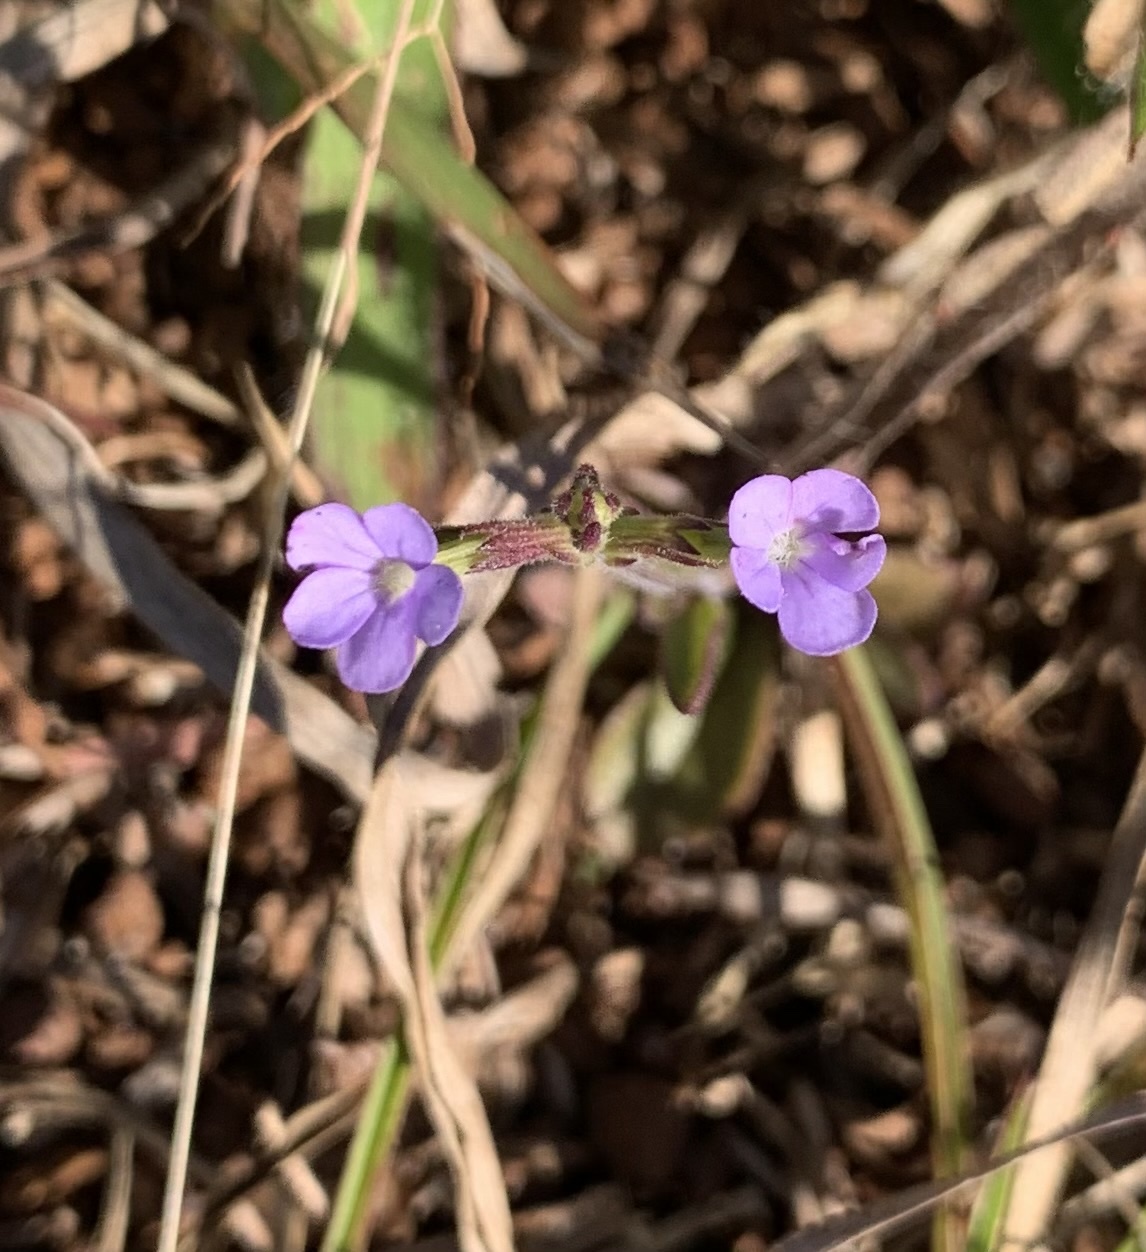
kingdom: Plantae
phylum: Tracheophyta
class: Magnoliopsida
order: Lamiales
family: Orobanchaceae
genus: Buchnera
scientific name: Buchnera hispida
